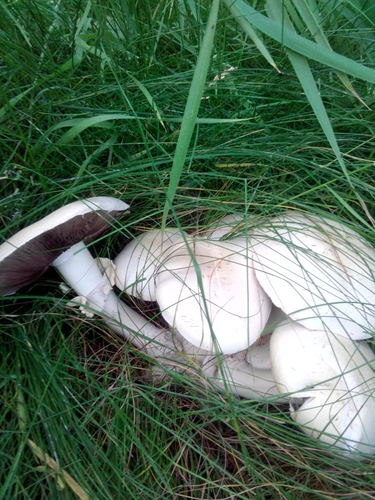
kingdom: Fungi
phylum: Basidiomycota
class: Agaricomycetes
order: Agaricales
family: Agaricaceae
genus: Agaricus
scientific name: Agaricus arvensis
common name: Horse mushroom
